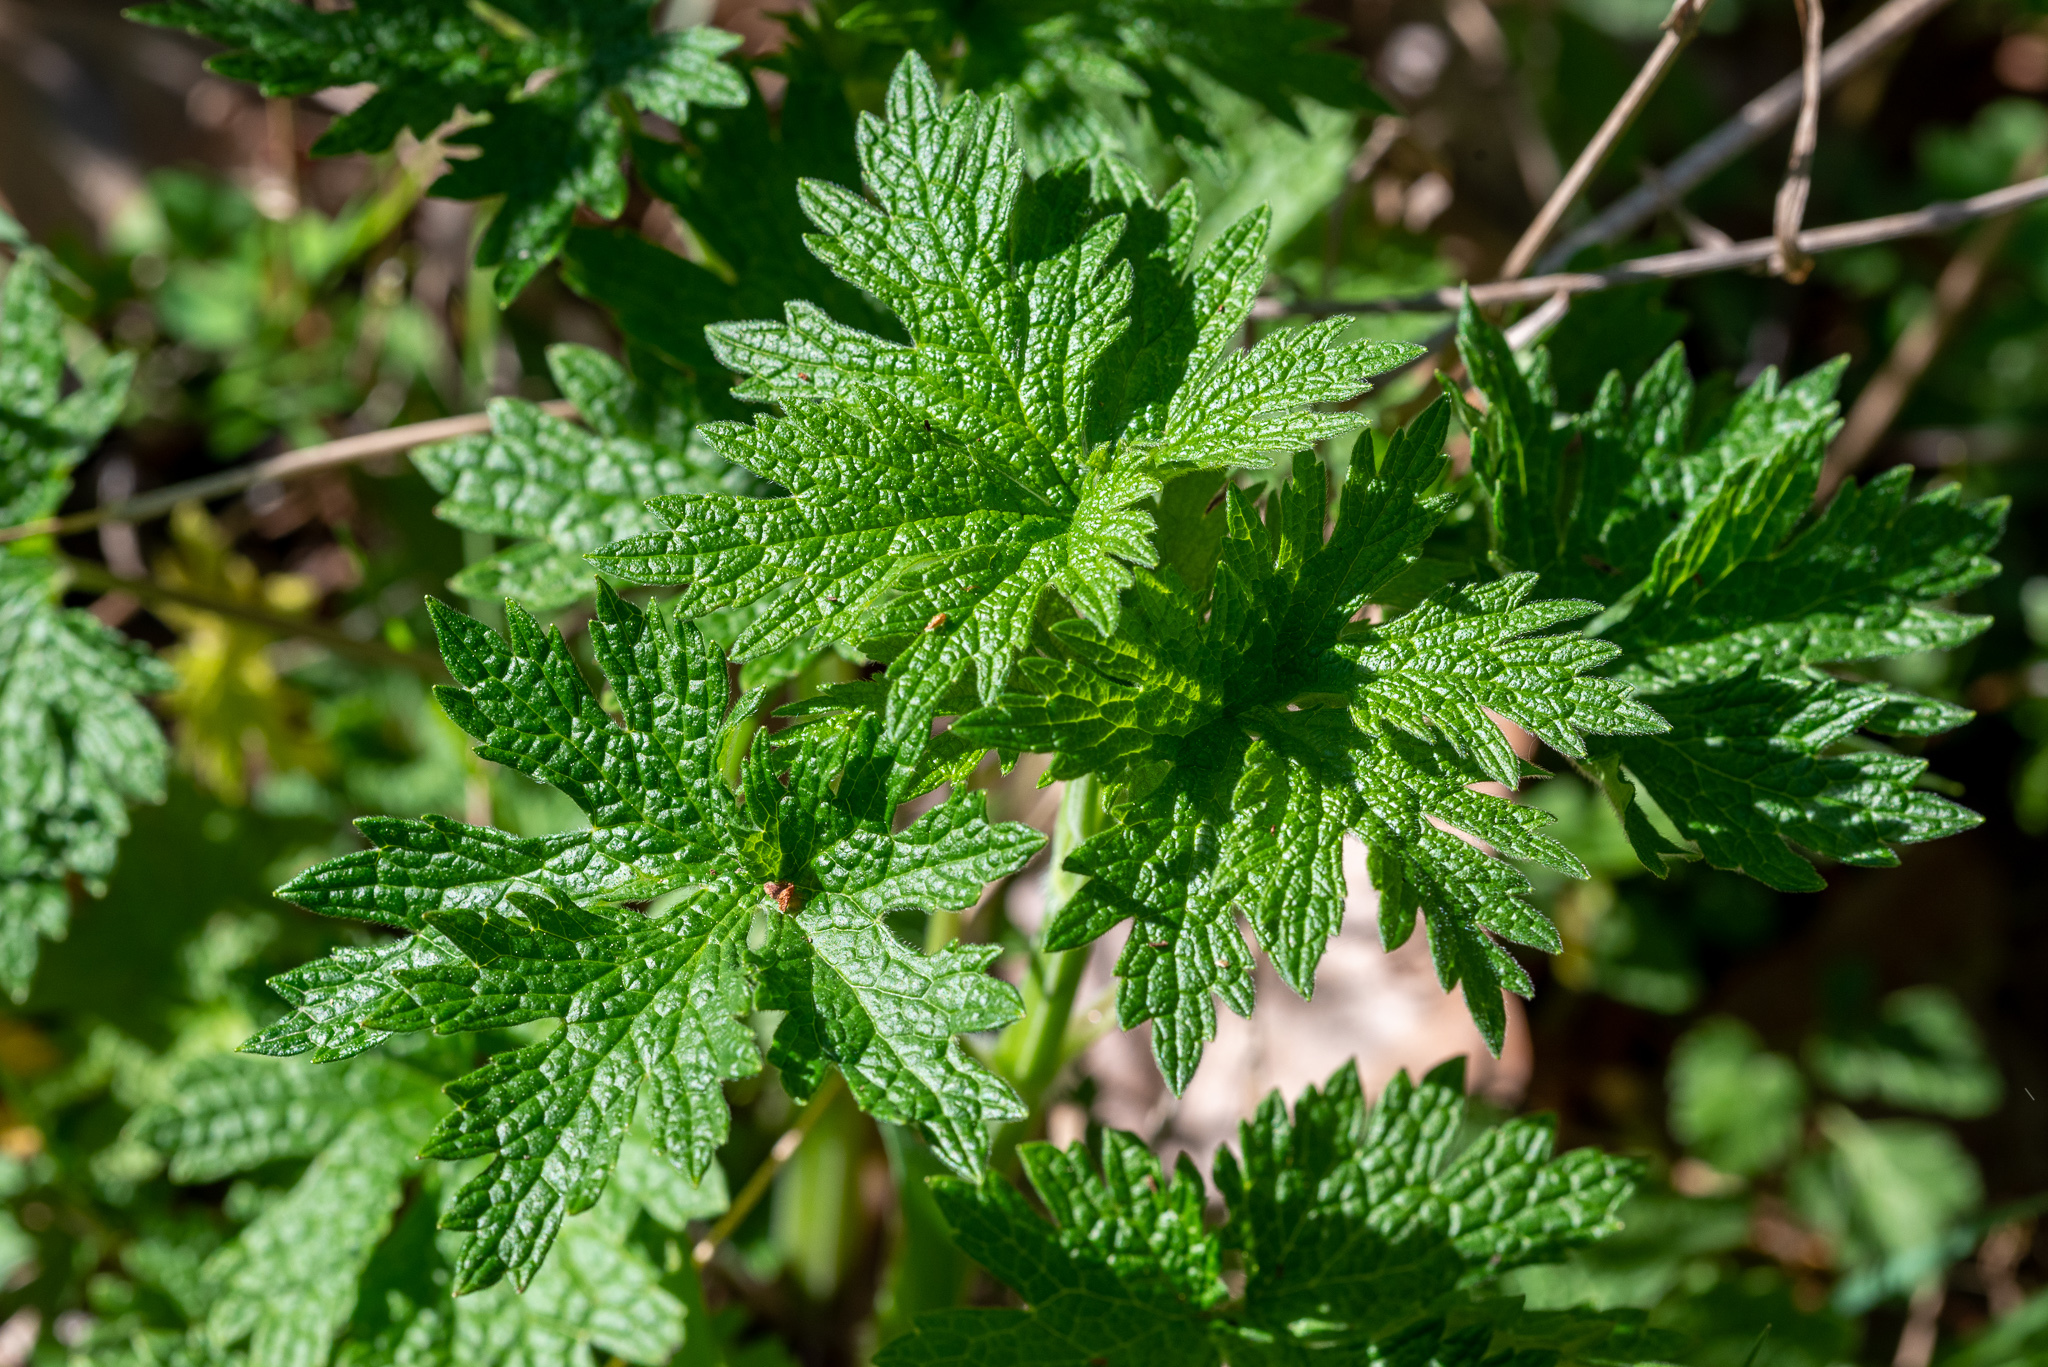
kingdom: Plantae
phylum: Tracheophyta
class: Magnoliopsida
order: Lamiales
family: Lamiaceae
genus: Leonurus
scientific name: Leonurus cardiaca
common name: Motherwort
